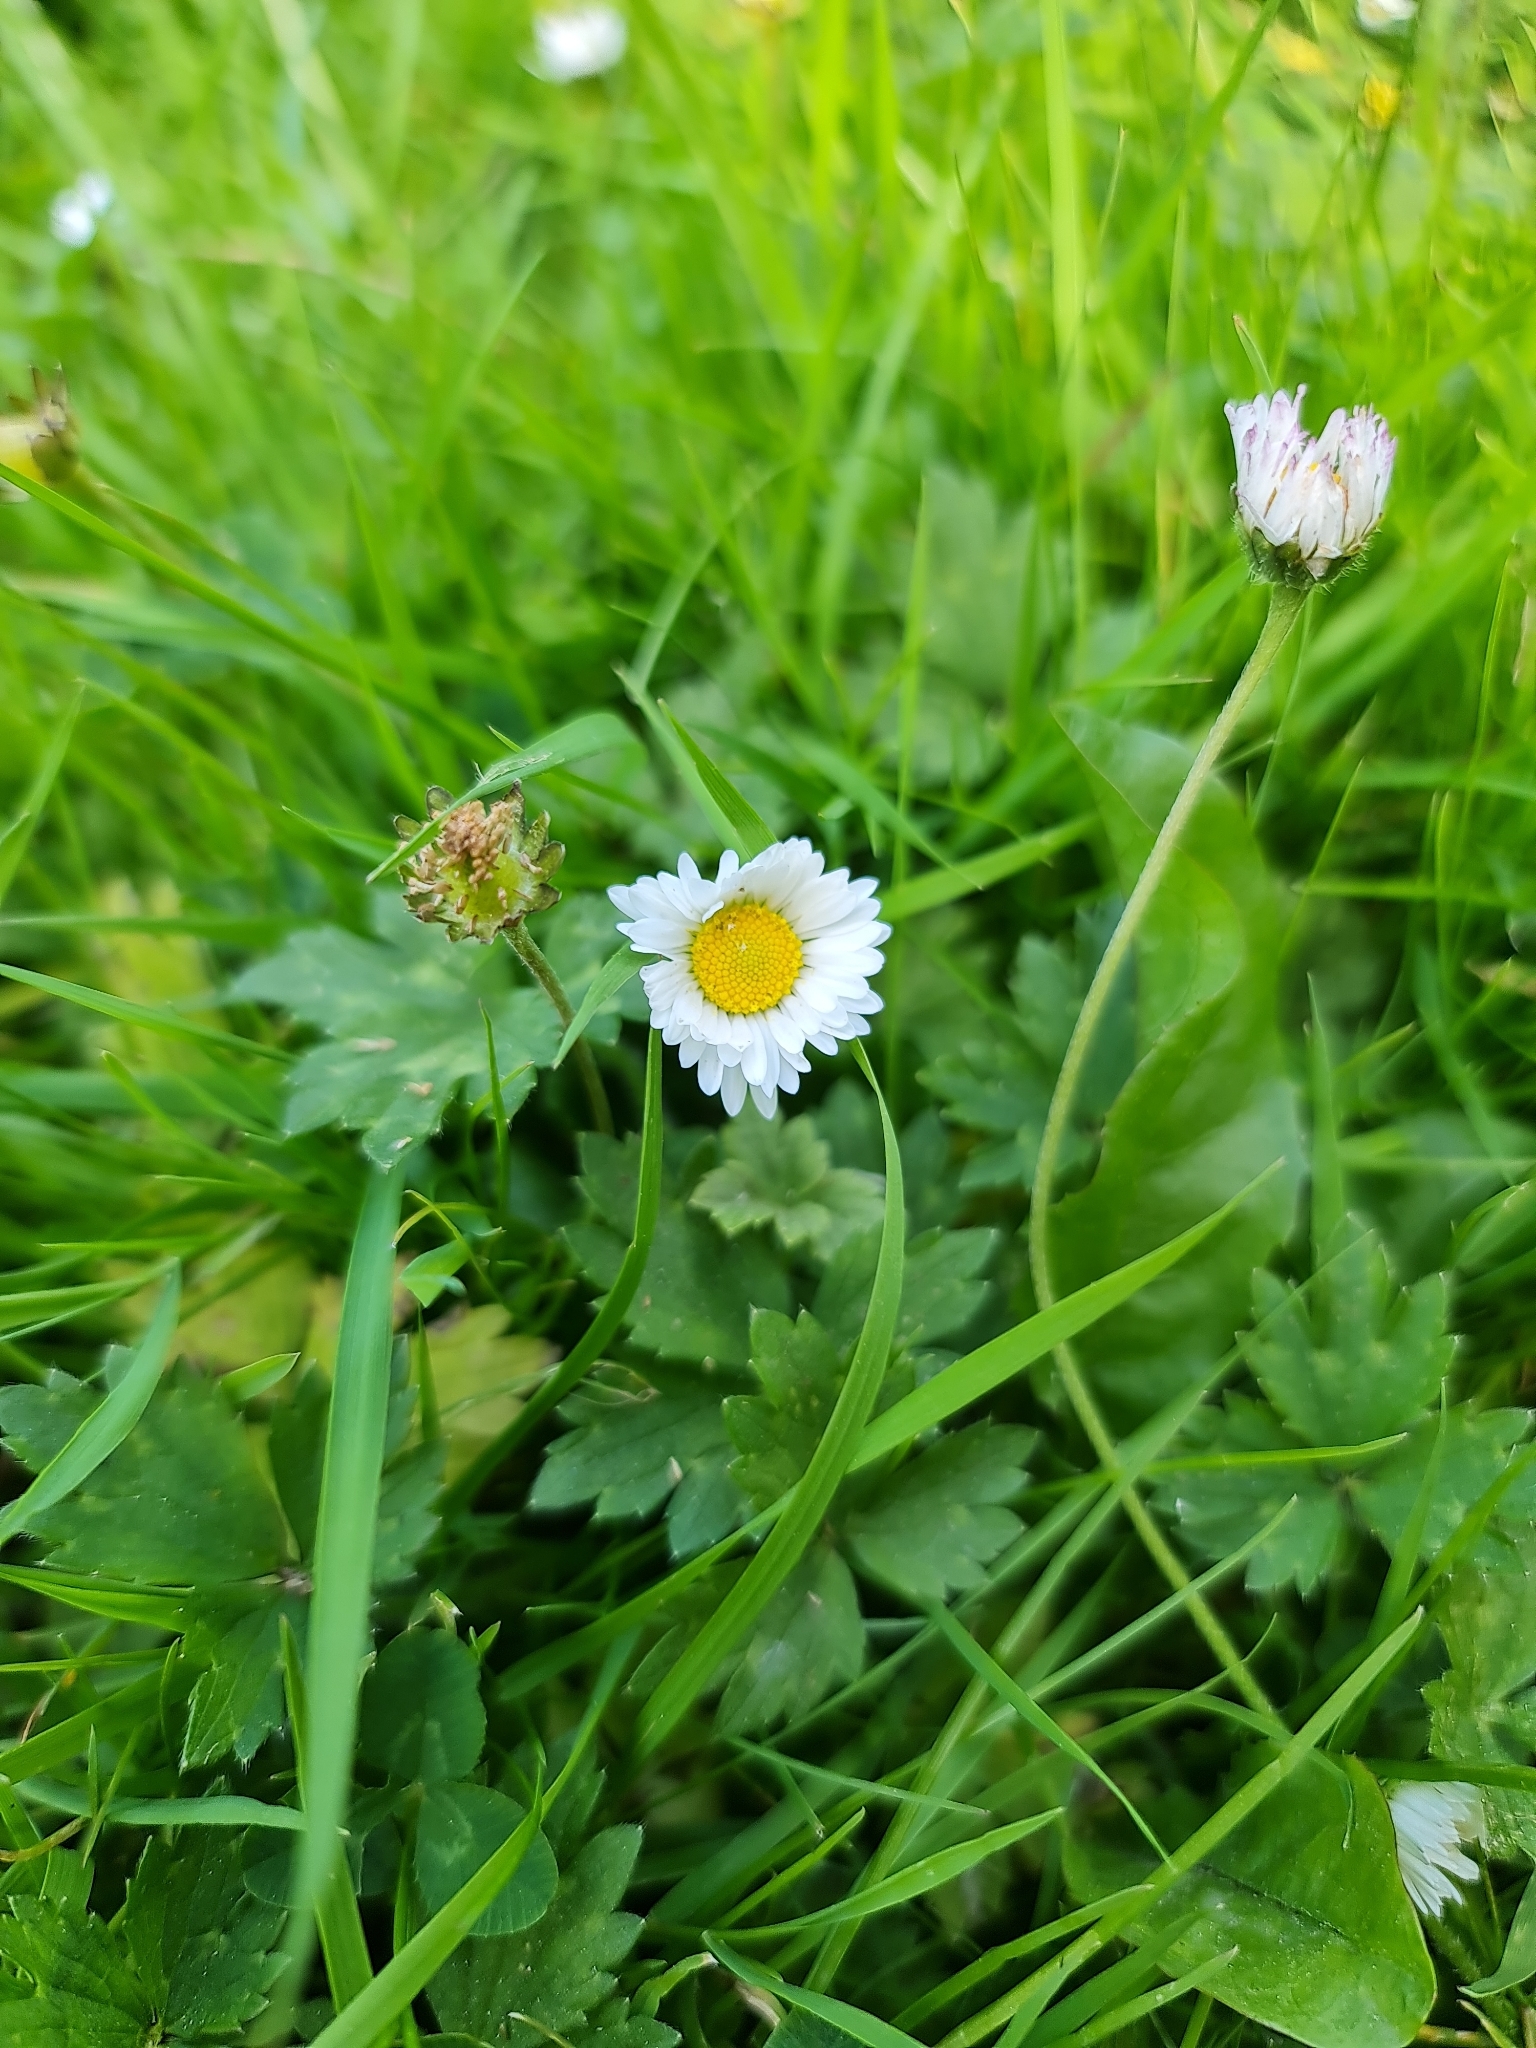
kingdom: Plantae
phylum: Tracheophyta
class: Magnoliopsida
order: Asterales
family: Asteraceae
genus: Bellis
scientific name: Bellis perennis
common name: Lawndaisy
